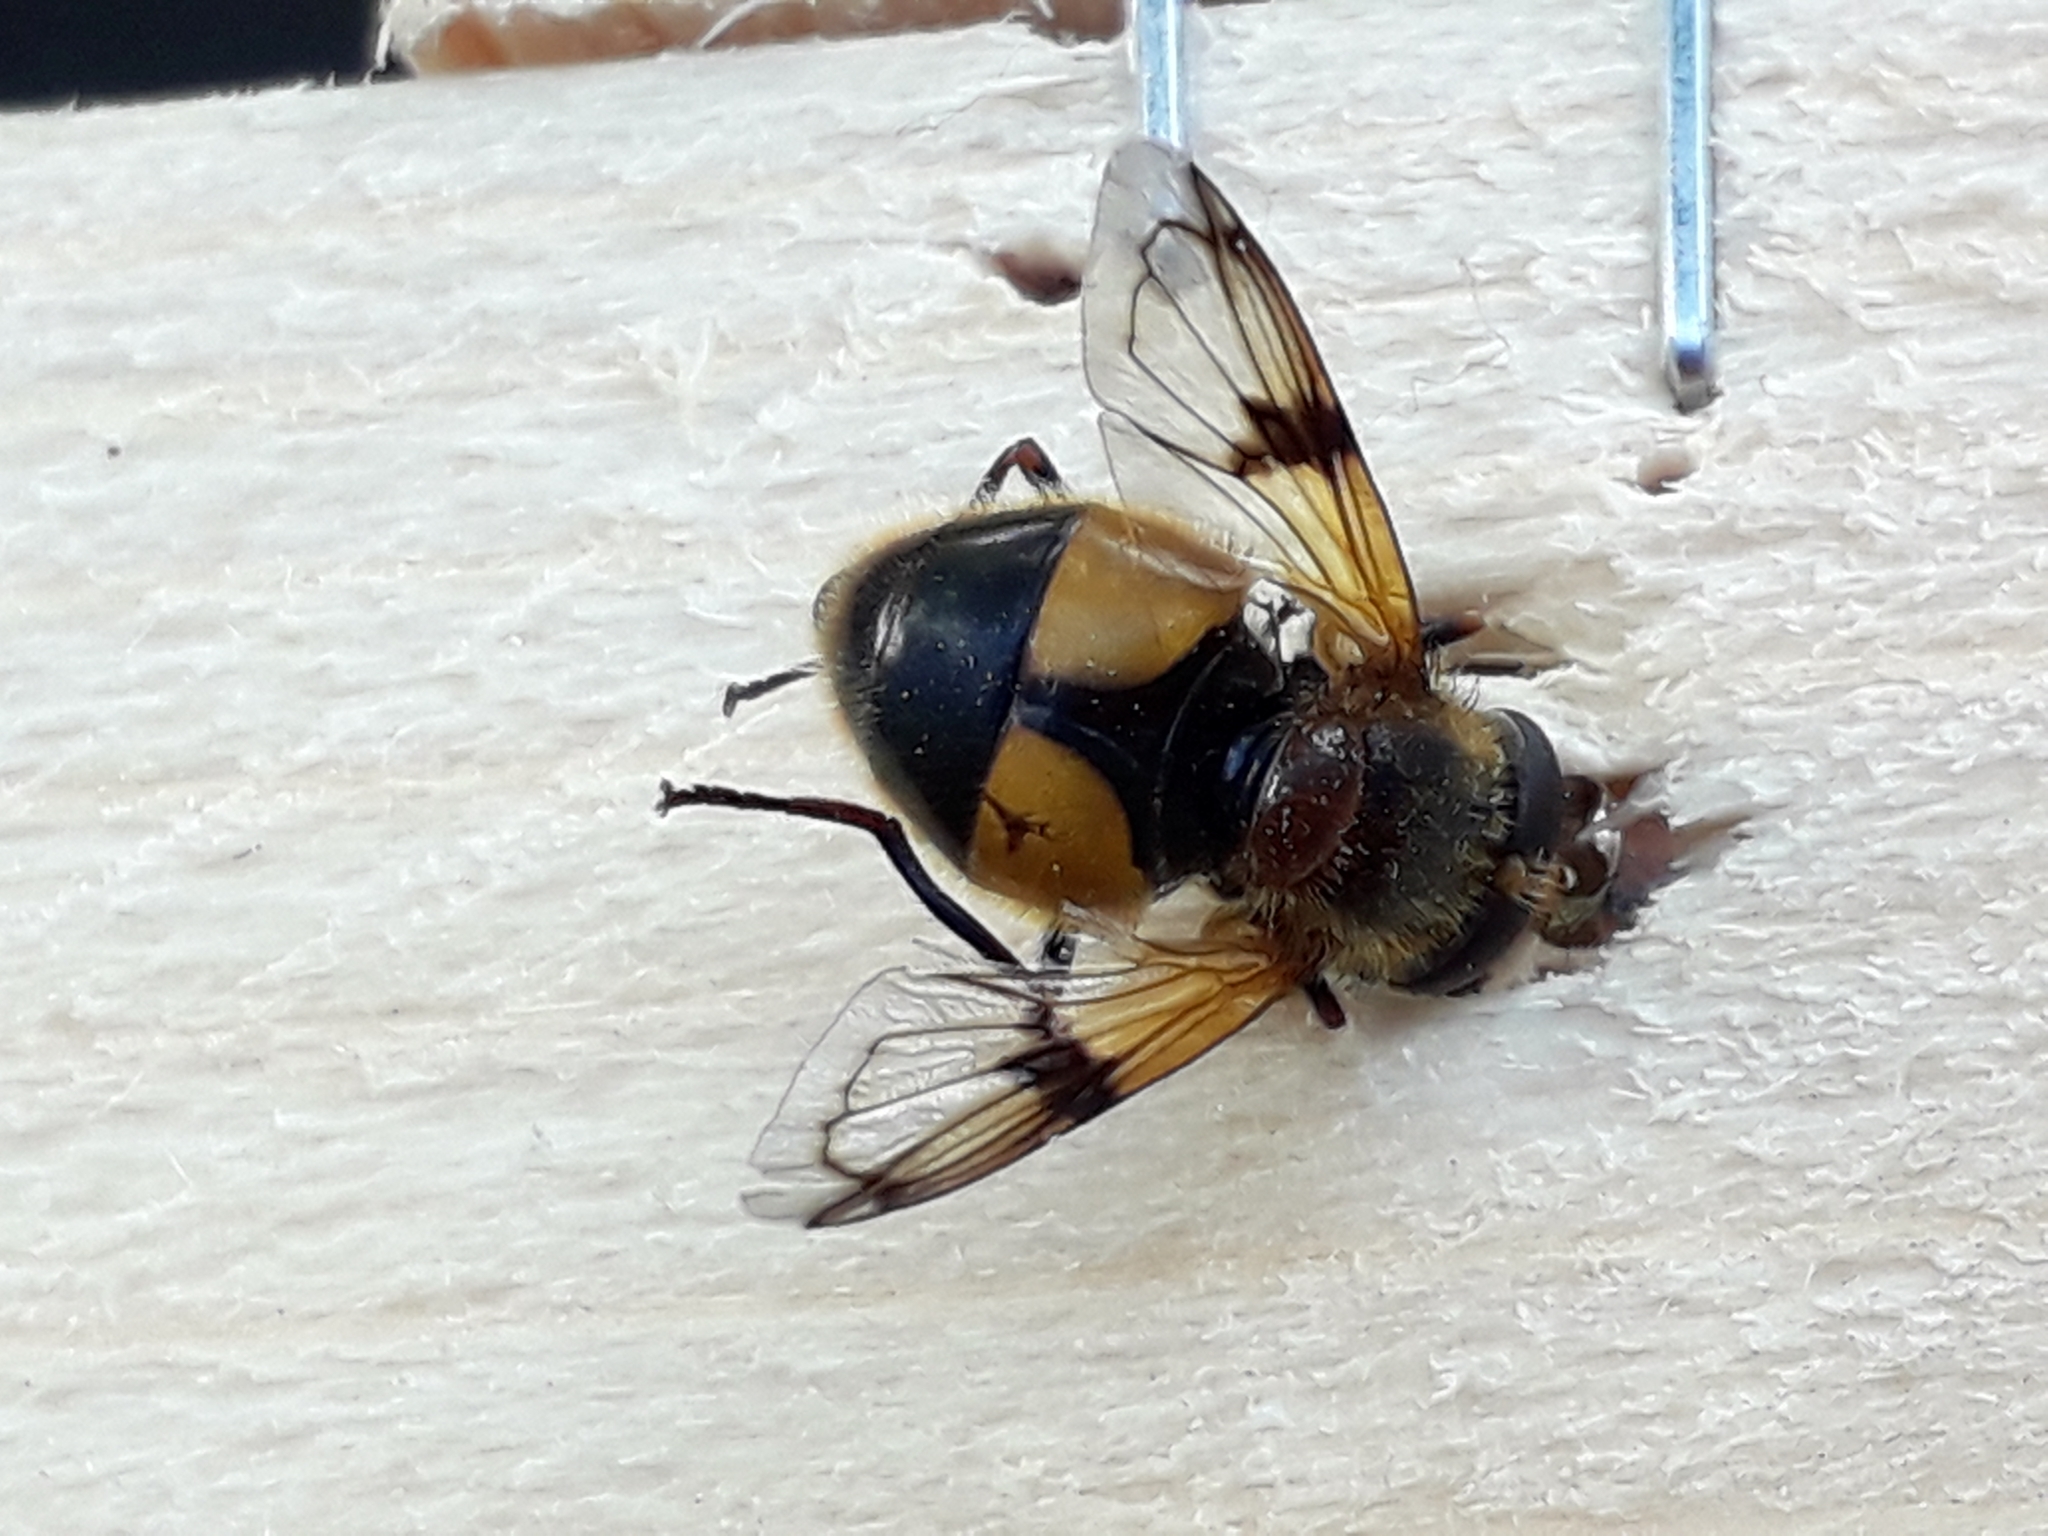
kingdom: Animalia
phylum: Arthropoda
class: Insecta
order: Diptera
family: Syrphidae
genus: Volucella
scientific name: Volucella inflata
